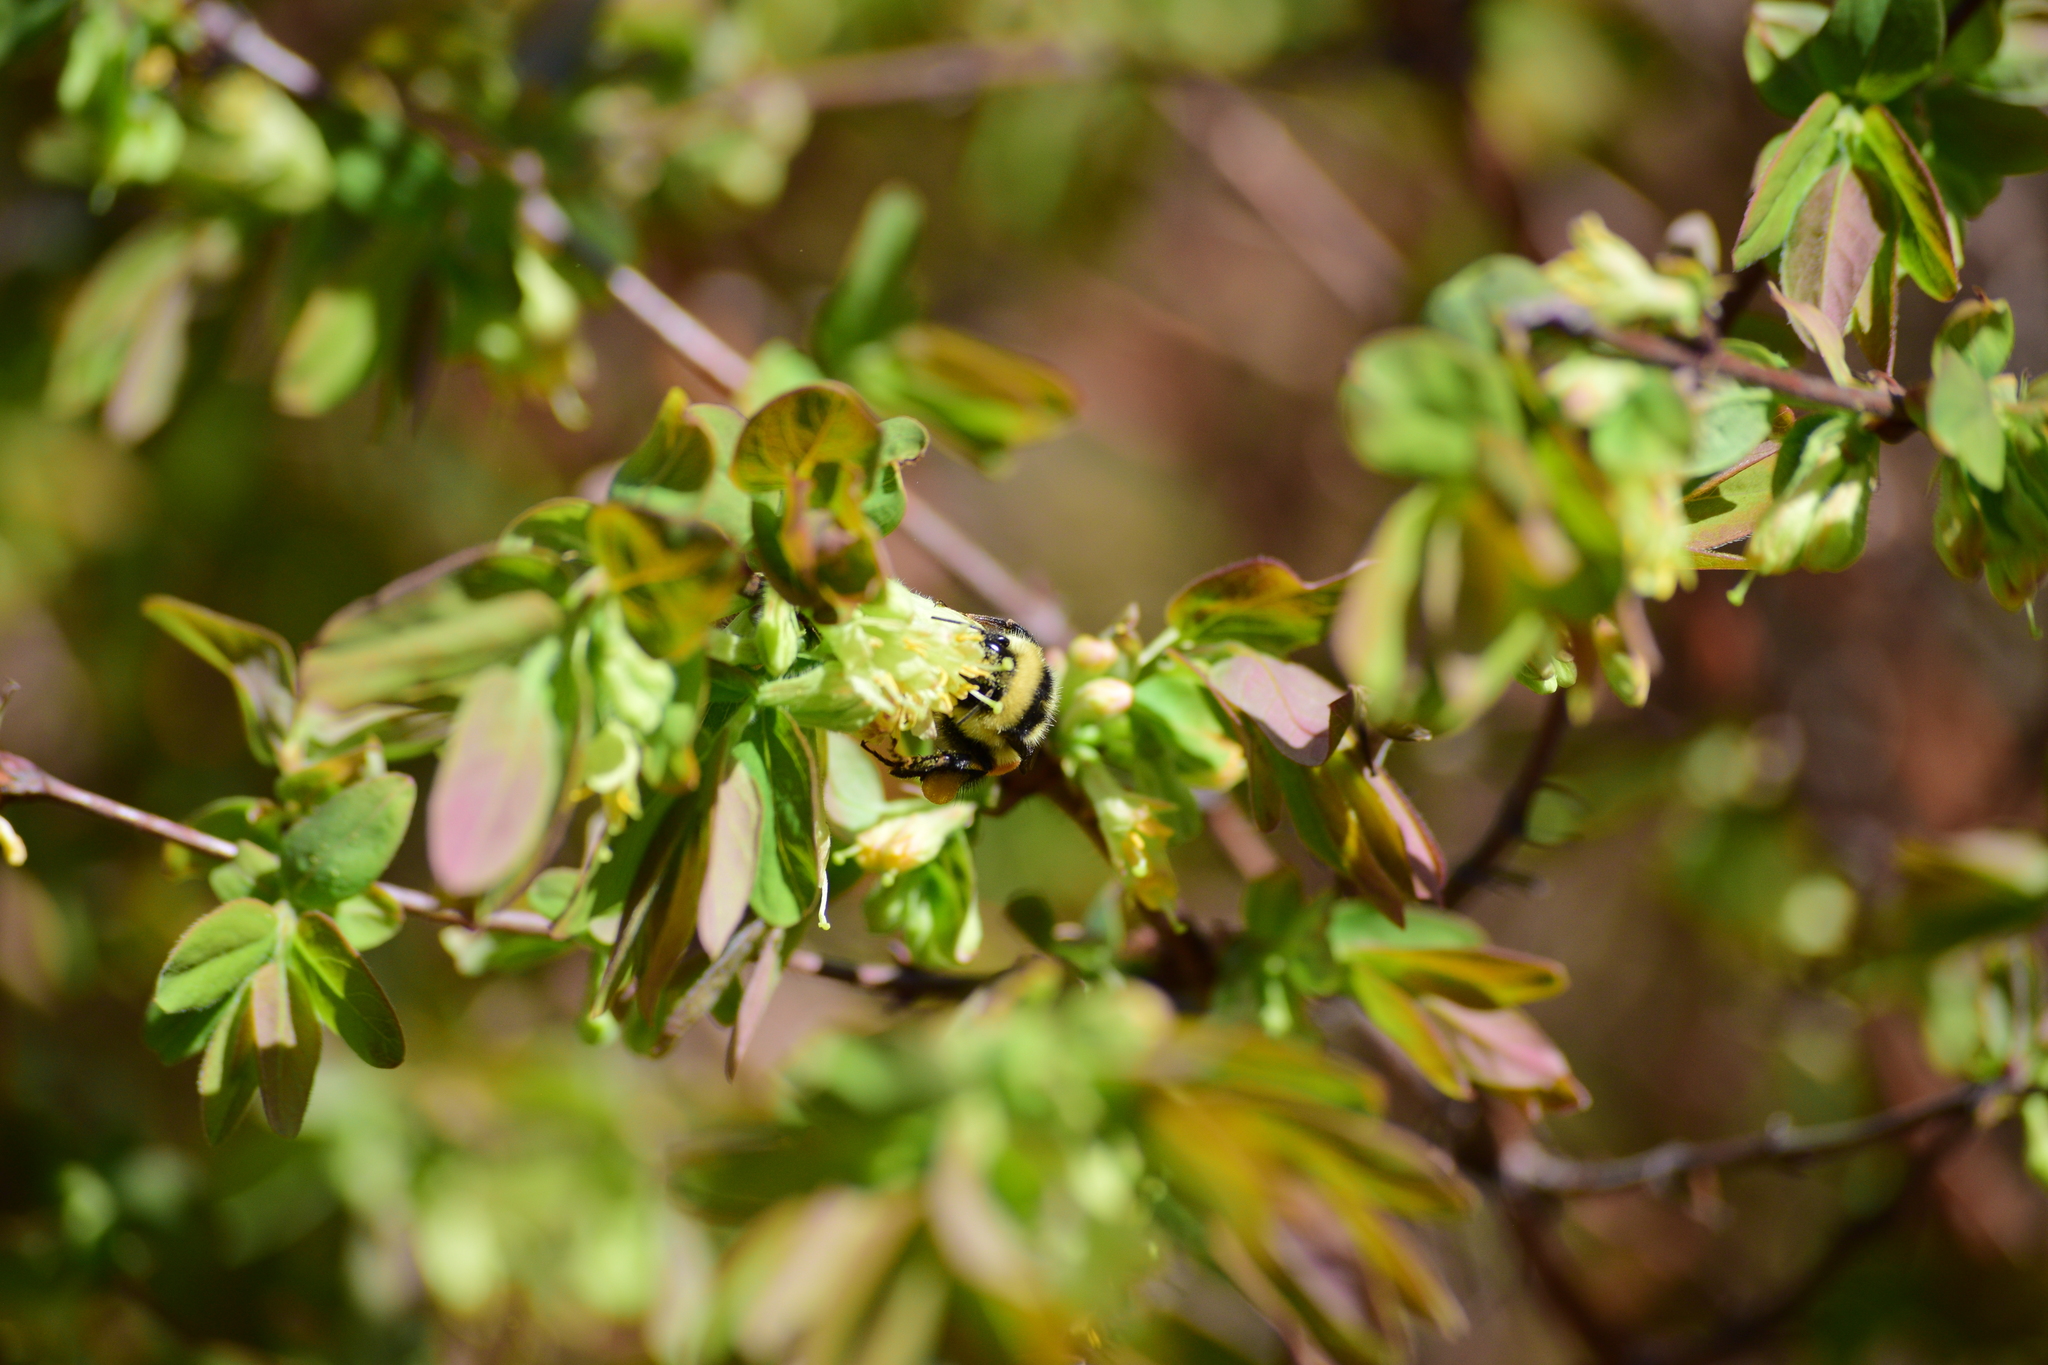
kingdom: Animalia
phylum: Arthropoda
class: Insecta
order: Hymenoptera
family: Apidae
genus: Bombus
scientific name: Bombus ternarius
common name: Tri-colored bumble bee
